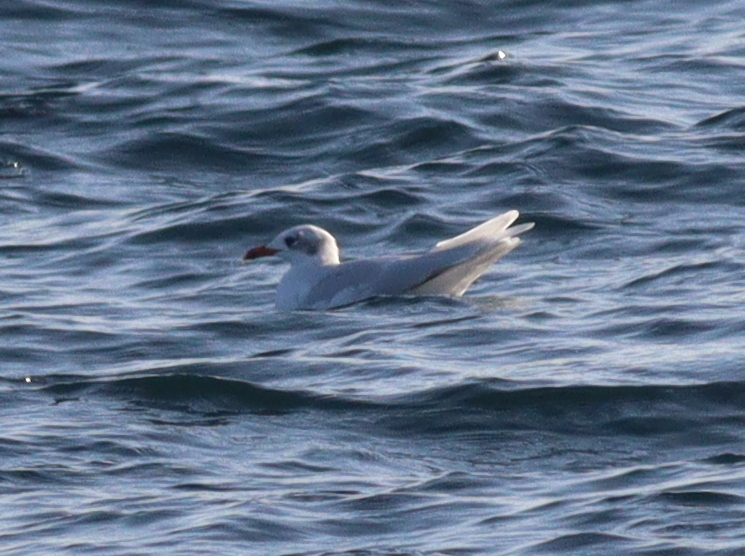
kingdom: Animalia
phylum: Chordata
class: Aves
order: Charadriiformes
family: Laridae
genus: Ichthyaetus
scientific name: Ichthyaetus melanocephalus
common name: Mediterranean gull
